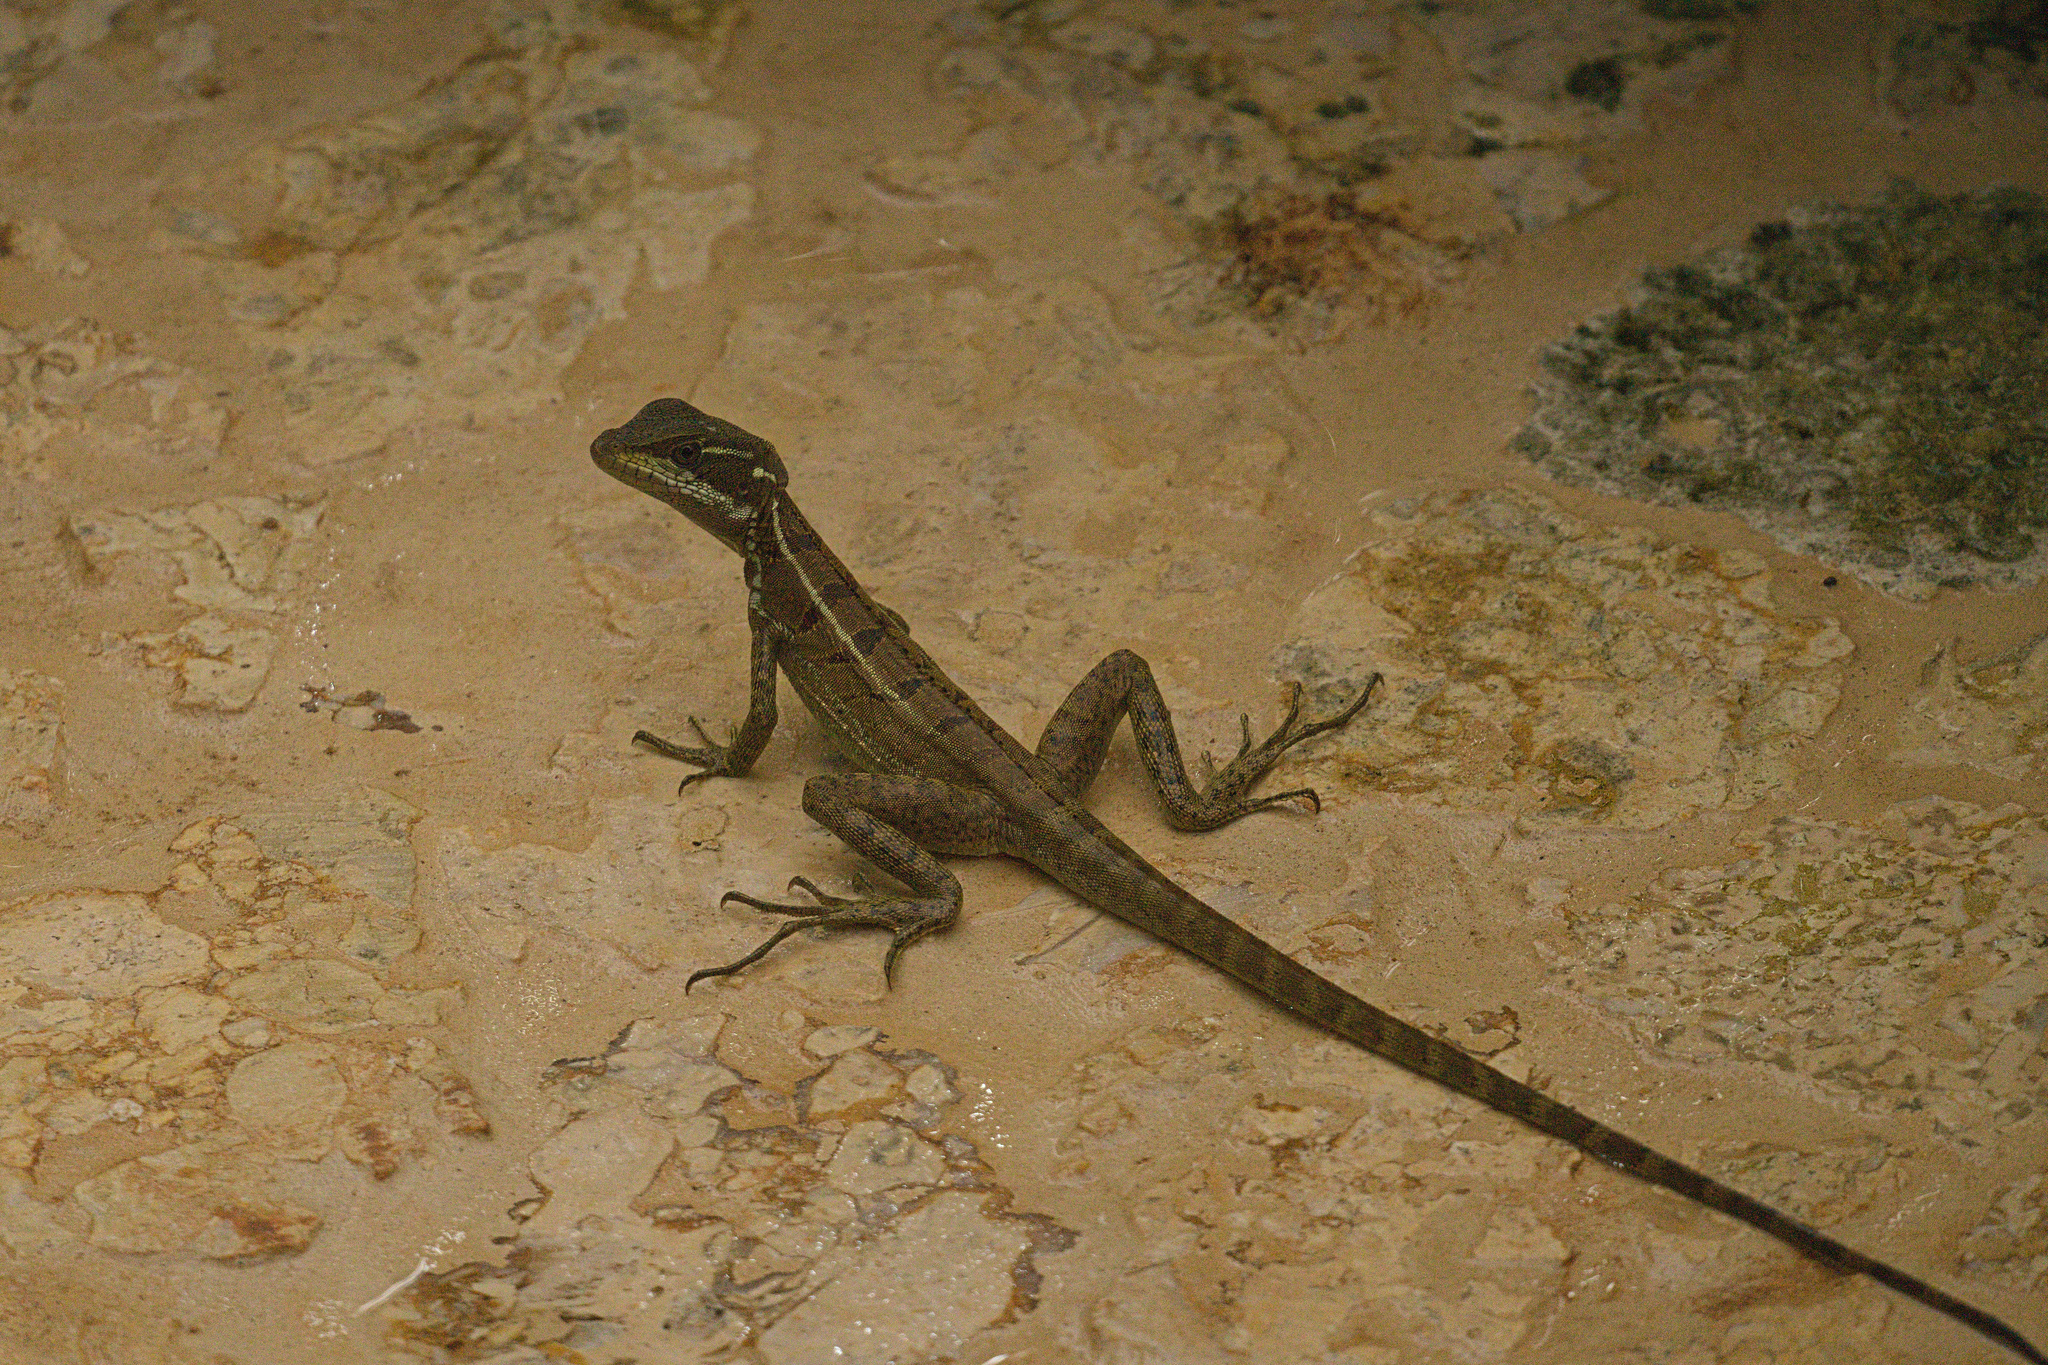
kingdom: Animalia
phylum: Chordata
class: Squamata
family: Corytophanidae
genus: Basiliscus
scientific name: Basiliscus basiliscus
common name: Common basilisk
